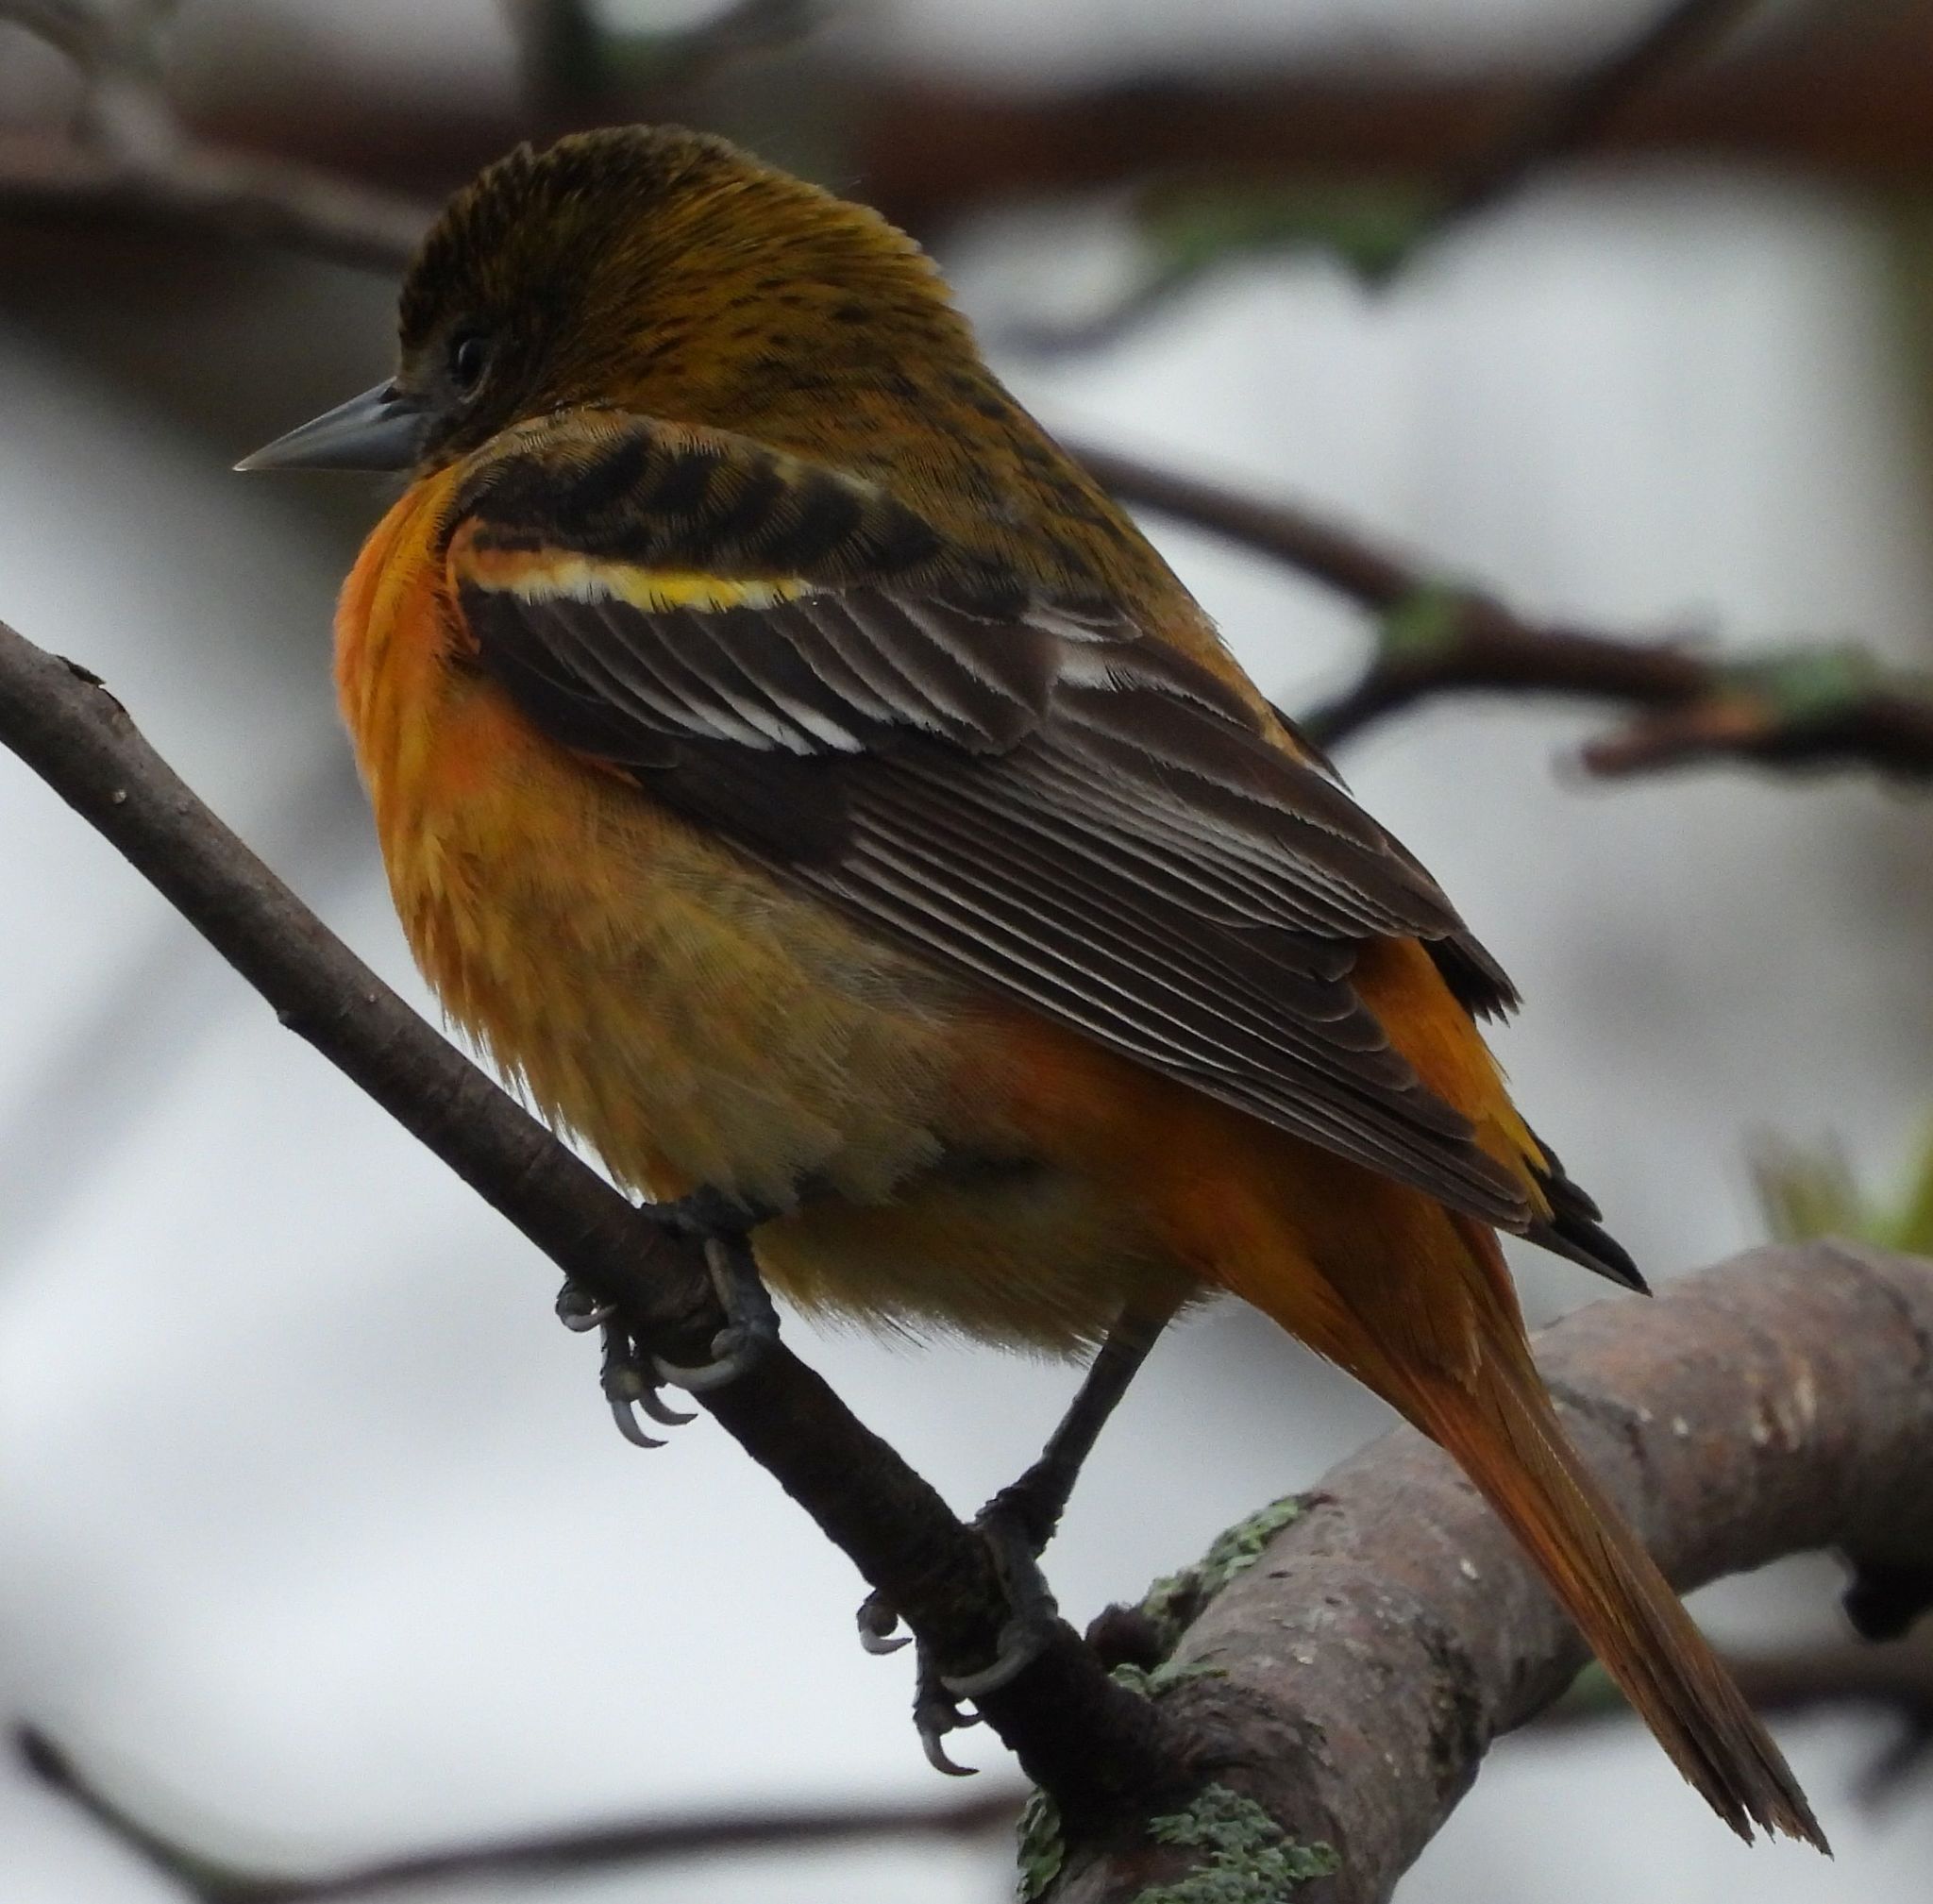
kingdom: Animalia
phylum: Chordata
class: Aves
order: Passeriformes
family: Icteridae
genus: Icterus
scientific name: Icterus galbula
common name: Baltimore oriole
